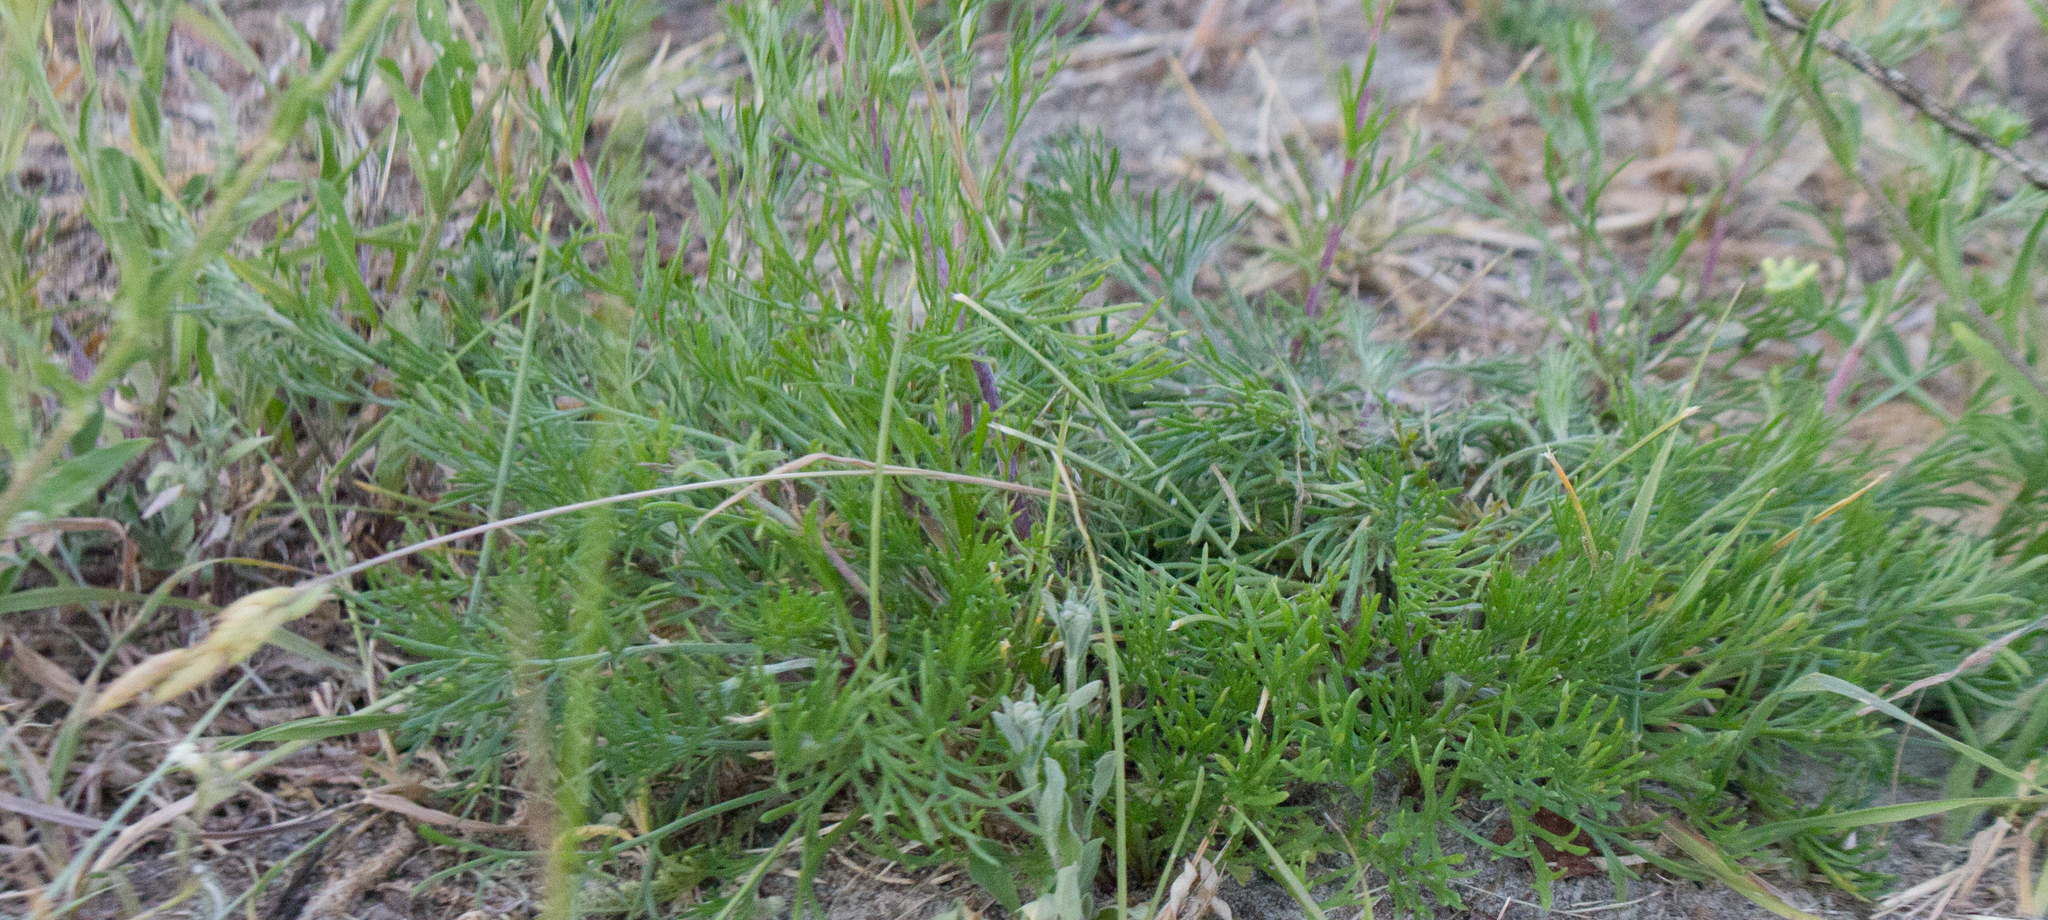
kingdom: Plantae
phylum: Tracheophyta
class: Magnoliopsida
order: Asterales
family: Asteraceae
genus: Artemisia
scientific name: Artemisia campestris
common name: Field wormwood
